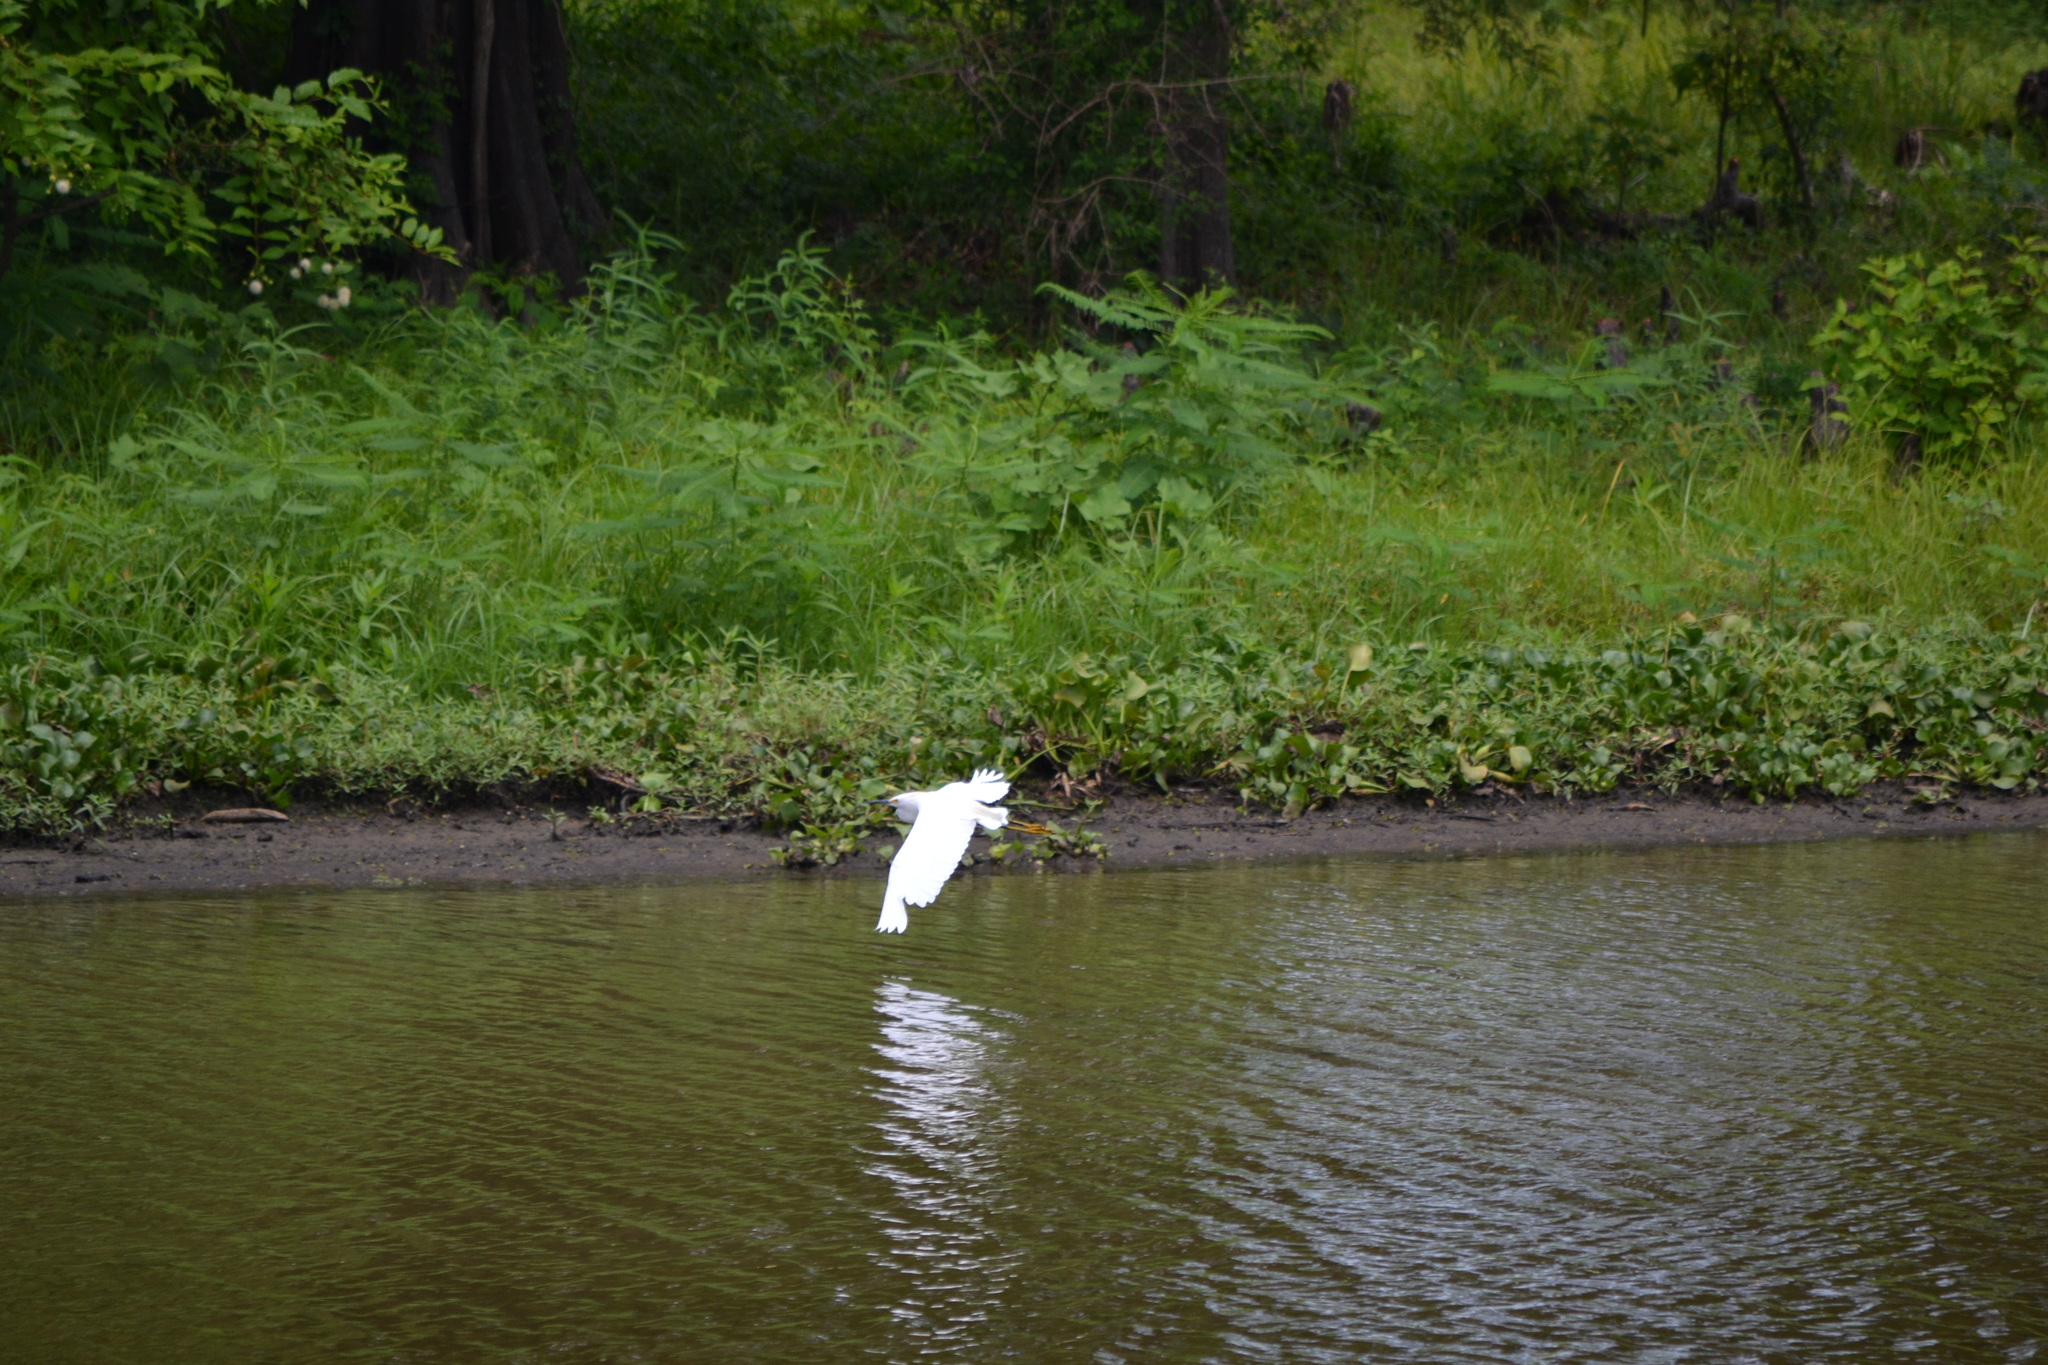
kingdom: Animalia
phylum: Chordata
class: Aves
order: Pelecaniformes
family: Ardeidae
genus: Egretta
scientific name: Egretta thula
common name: Snowy egret
